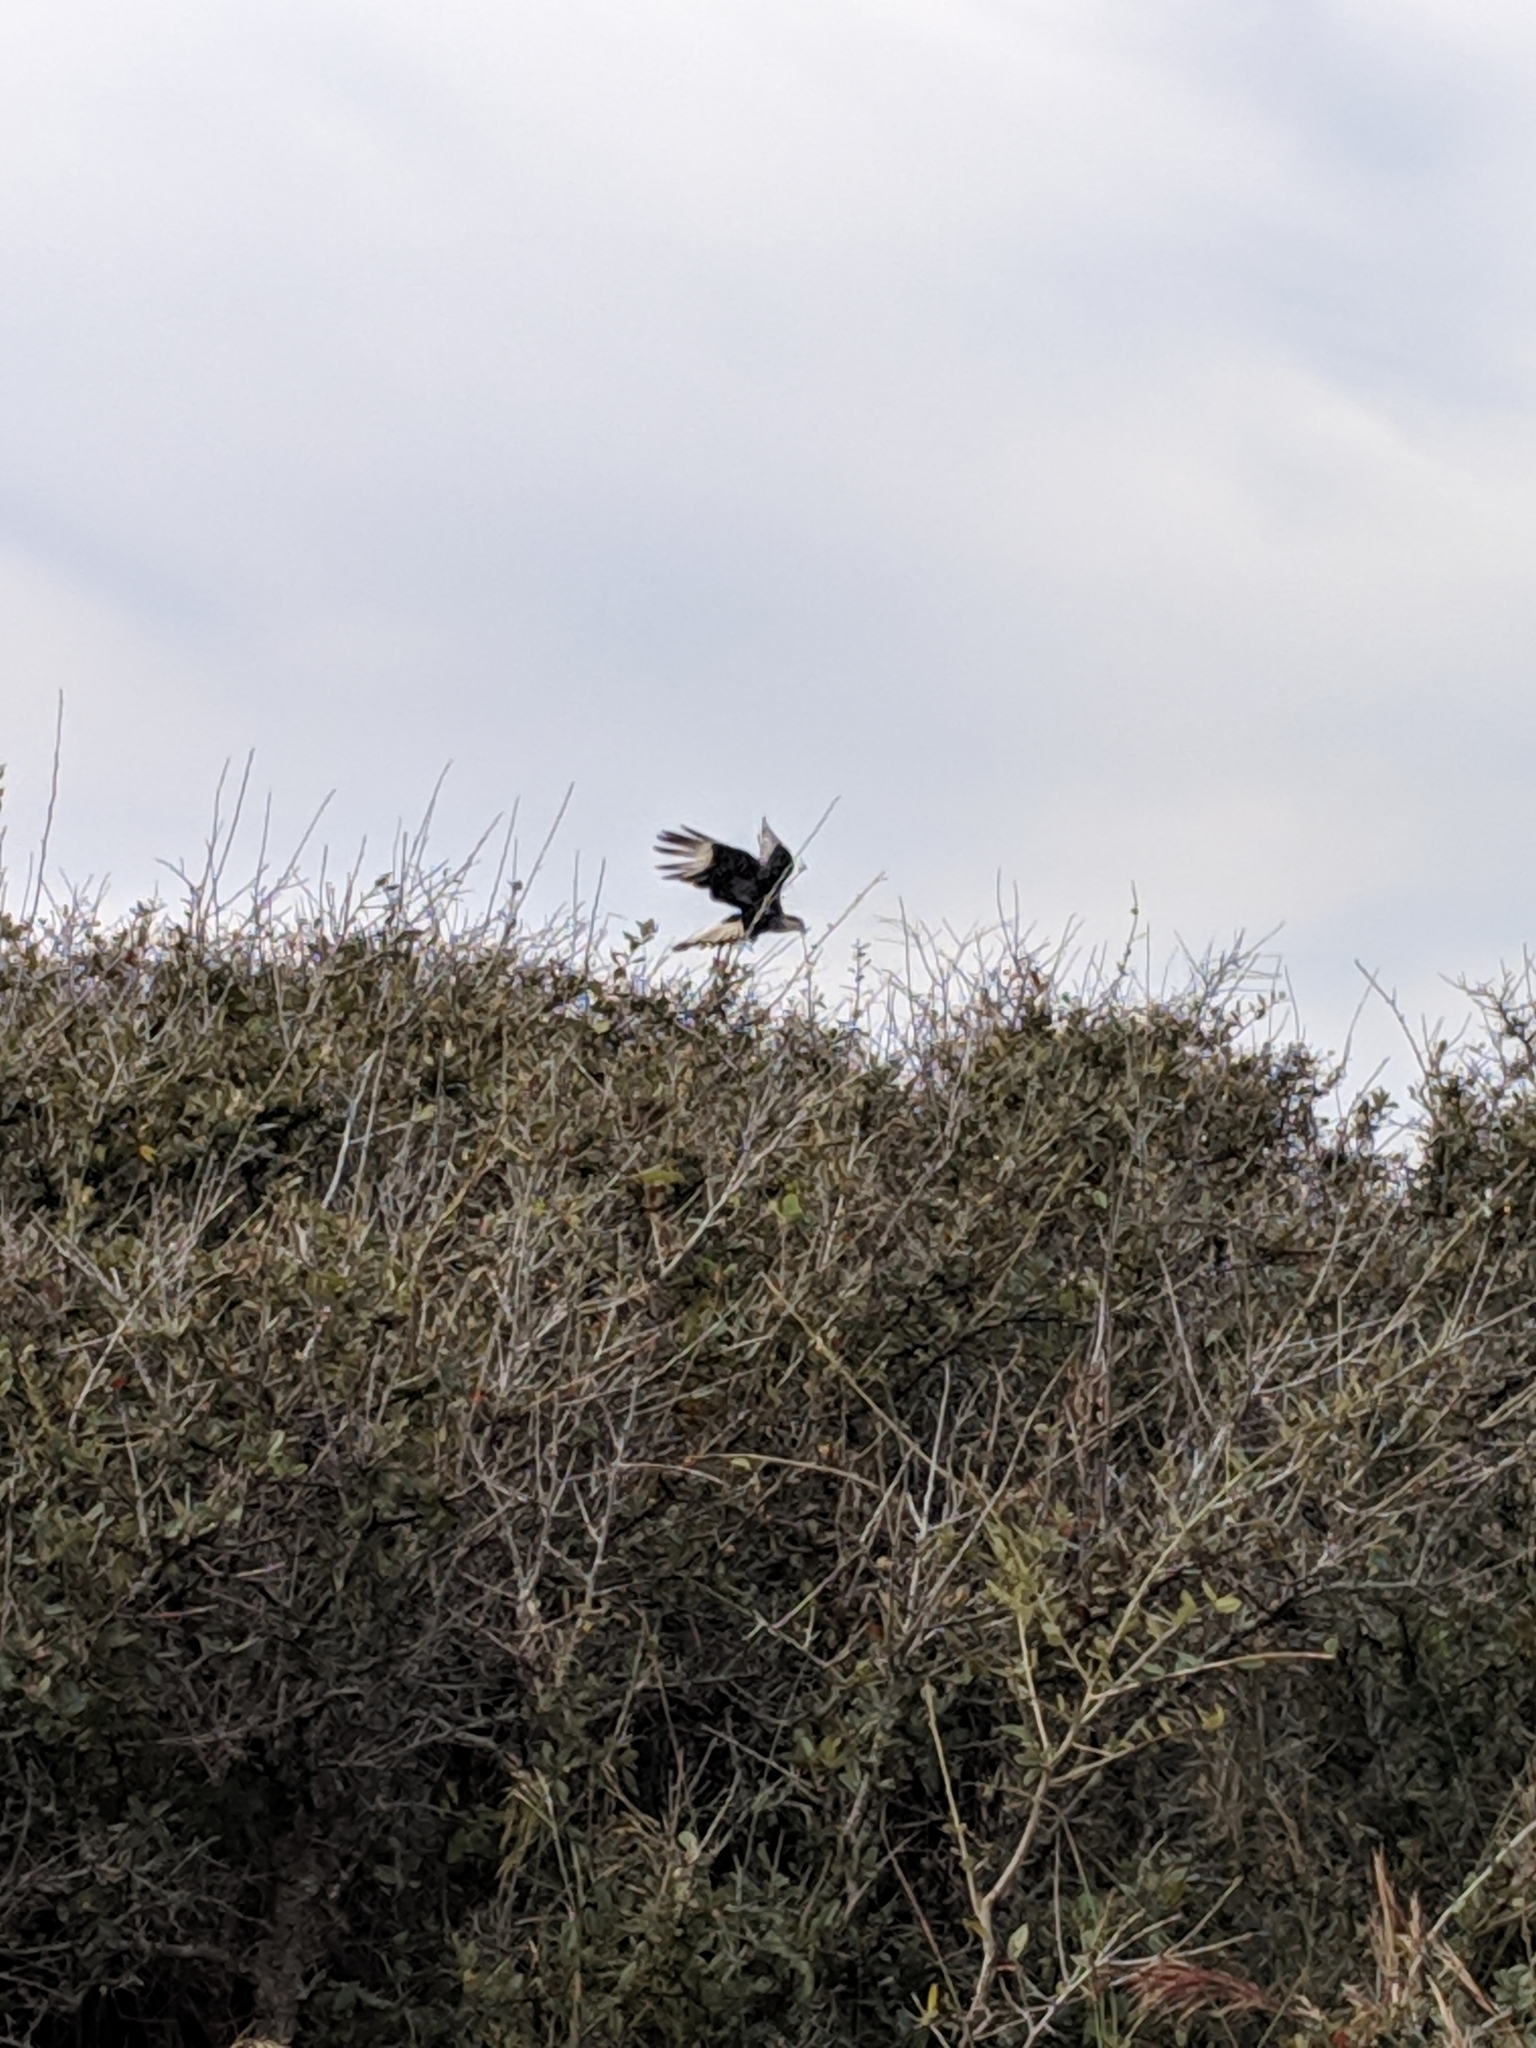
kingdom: Animalia
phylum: Chordata
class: Aves
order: Falconiformes
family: Falconidae
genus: Caracara
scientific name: Caracara plancus
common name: Southern caracara
